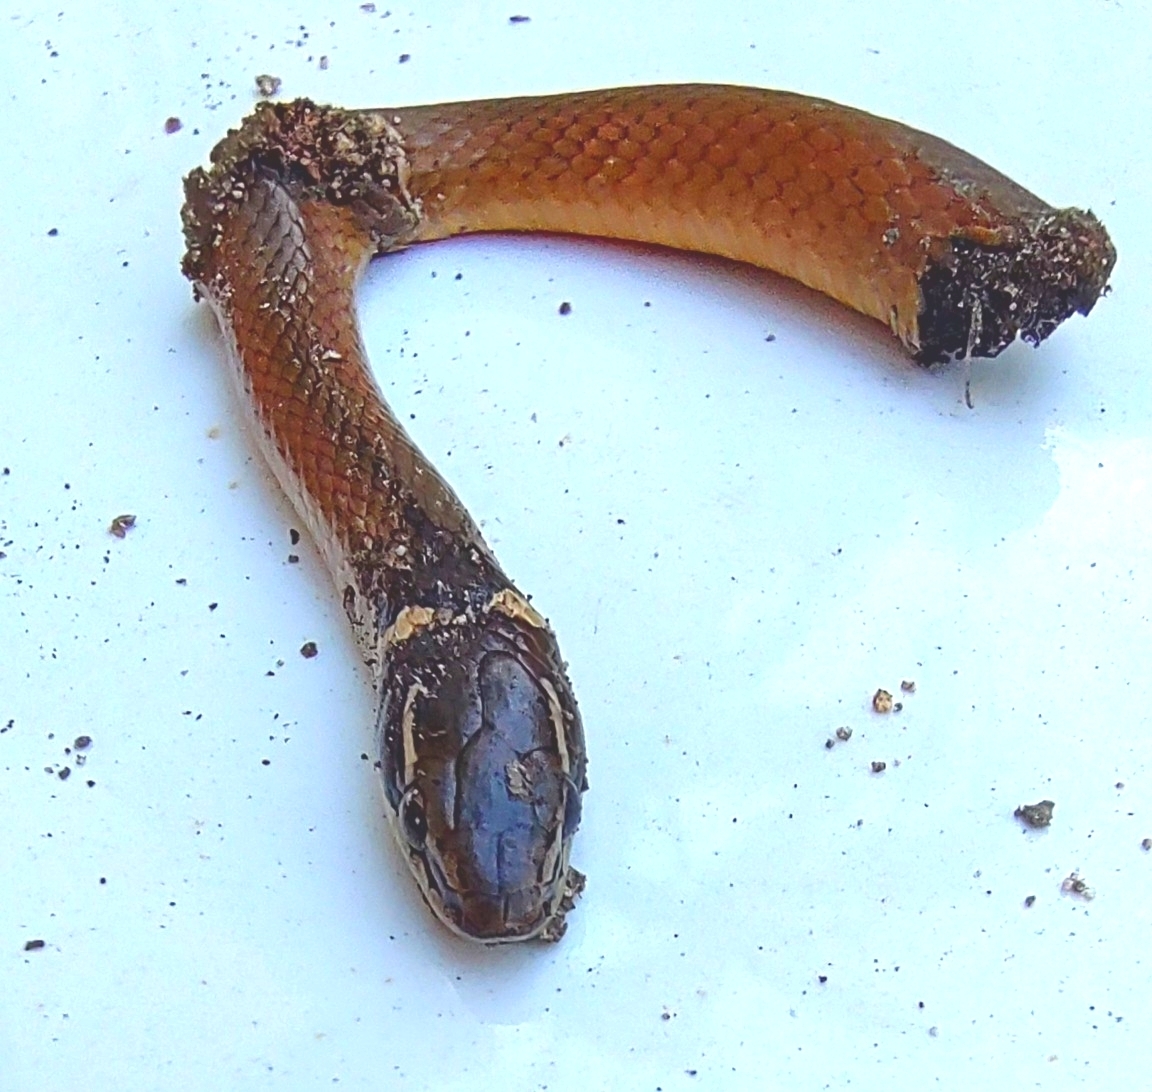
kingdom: Animalia
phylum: Chordata
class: Squamata
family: Colubridae
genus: Coniophanes
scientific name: Coniophanes meridanus
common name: Peninsula stripeless snake
